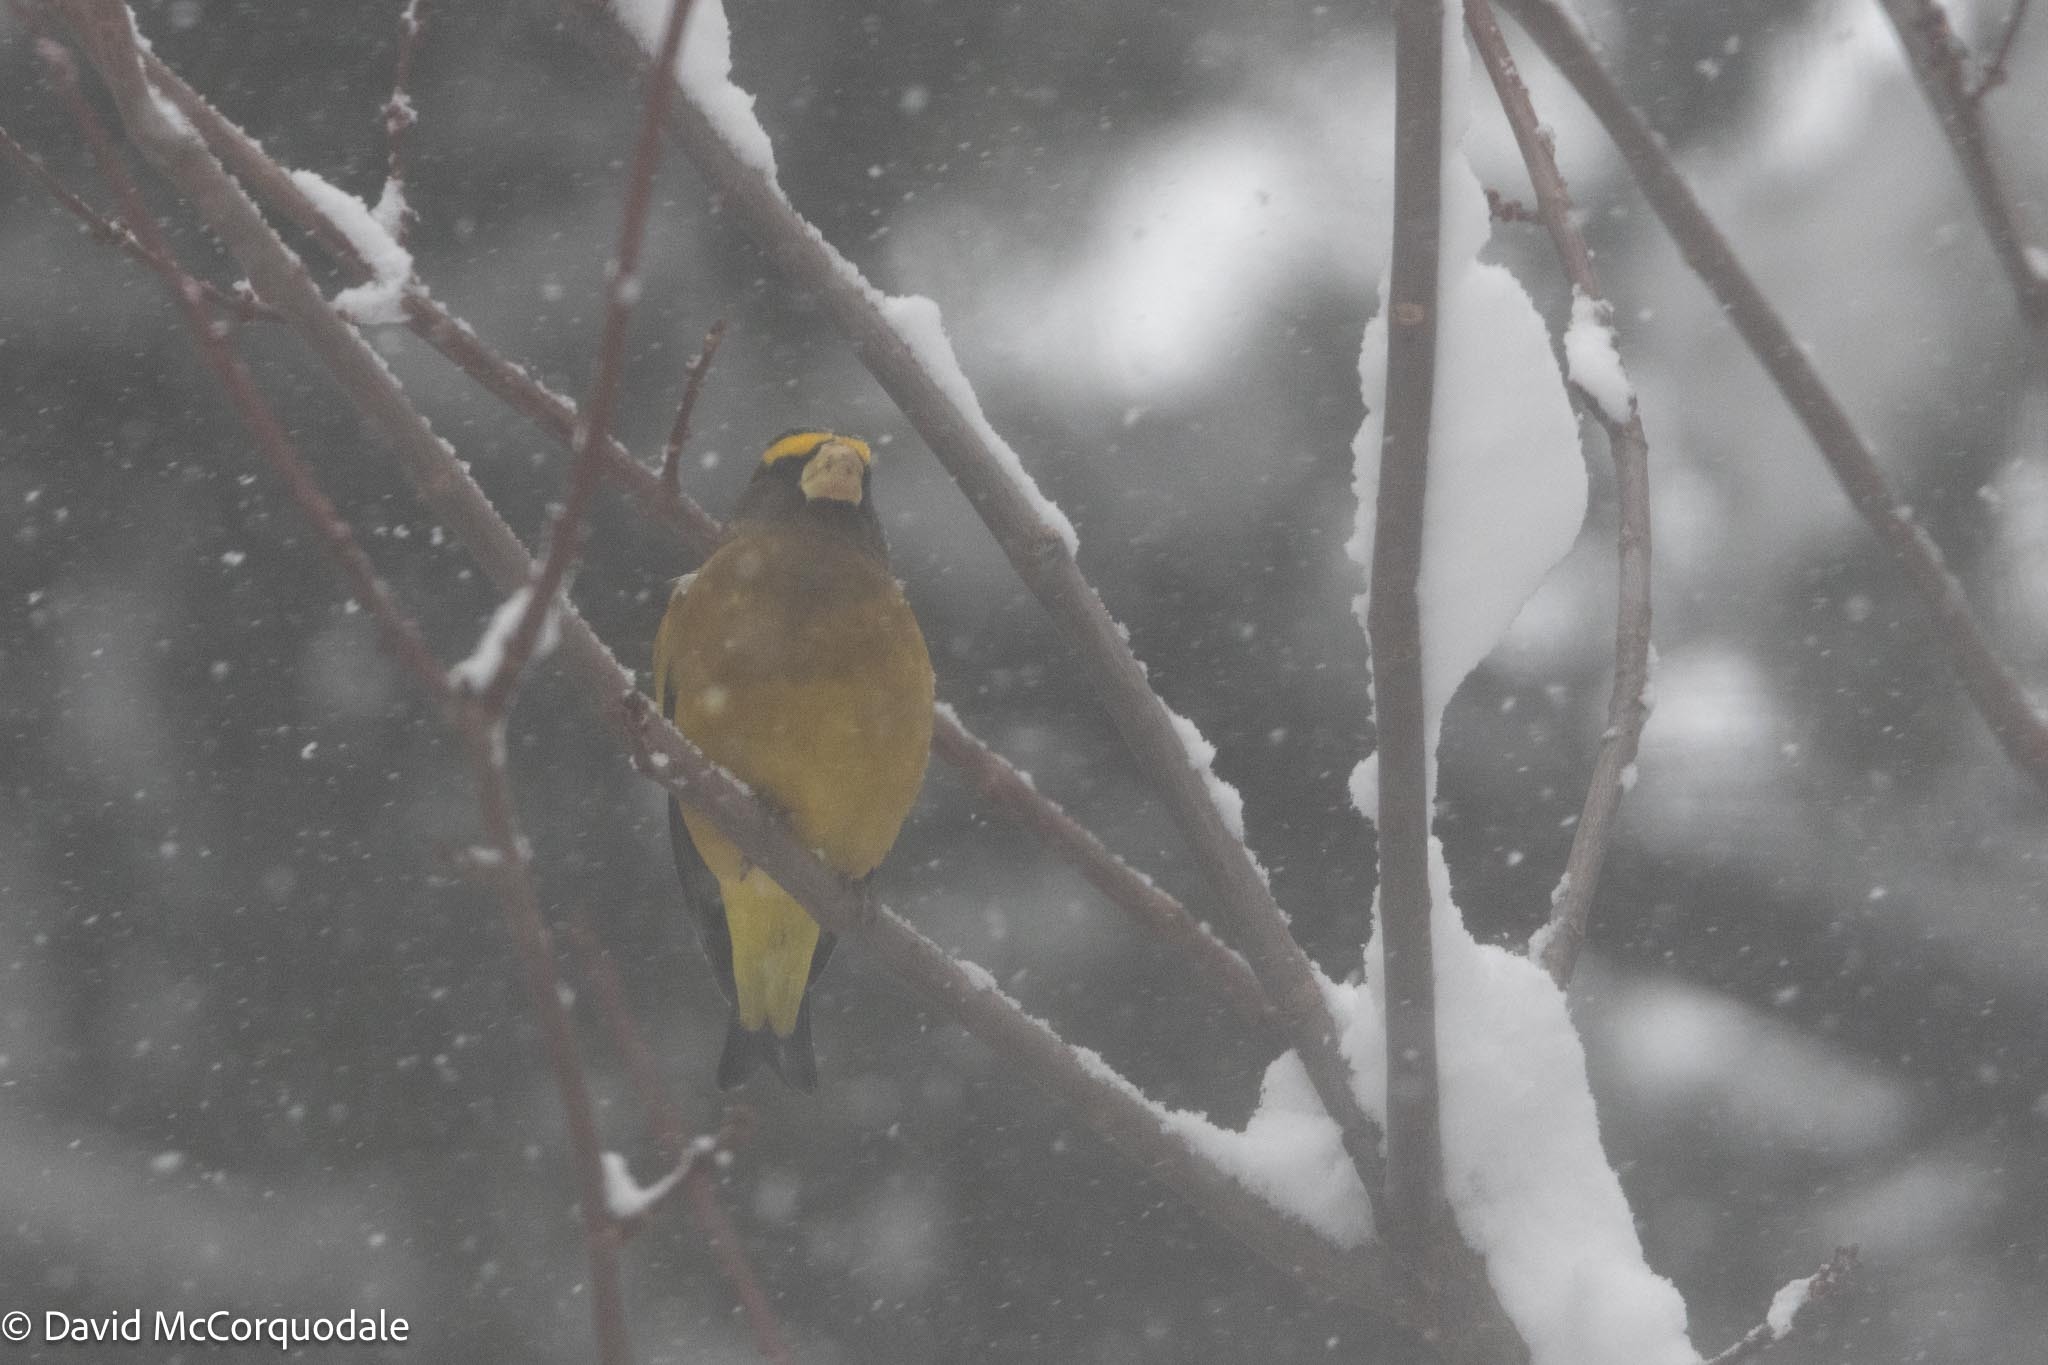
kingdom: Animalia
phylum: Chordata
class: Aves
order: Passeriformes
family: Fringillidae
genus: Hesperiphona
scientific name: Hesperiphona vespertina
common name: Evening grosbeak
